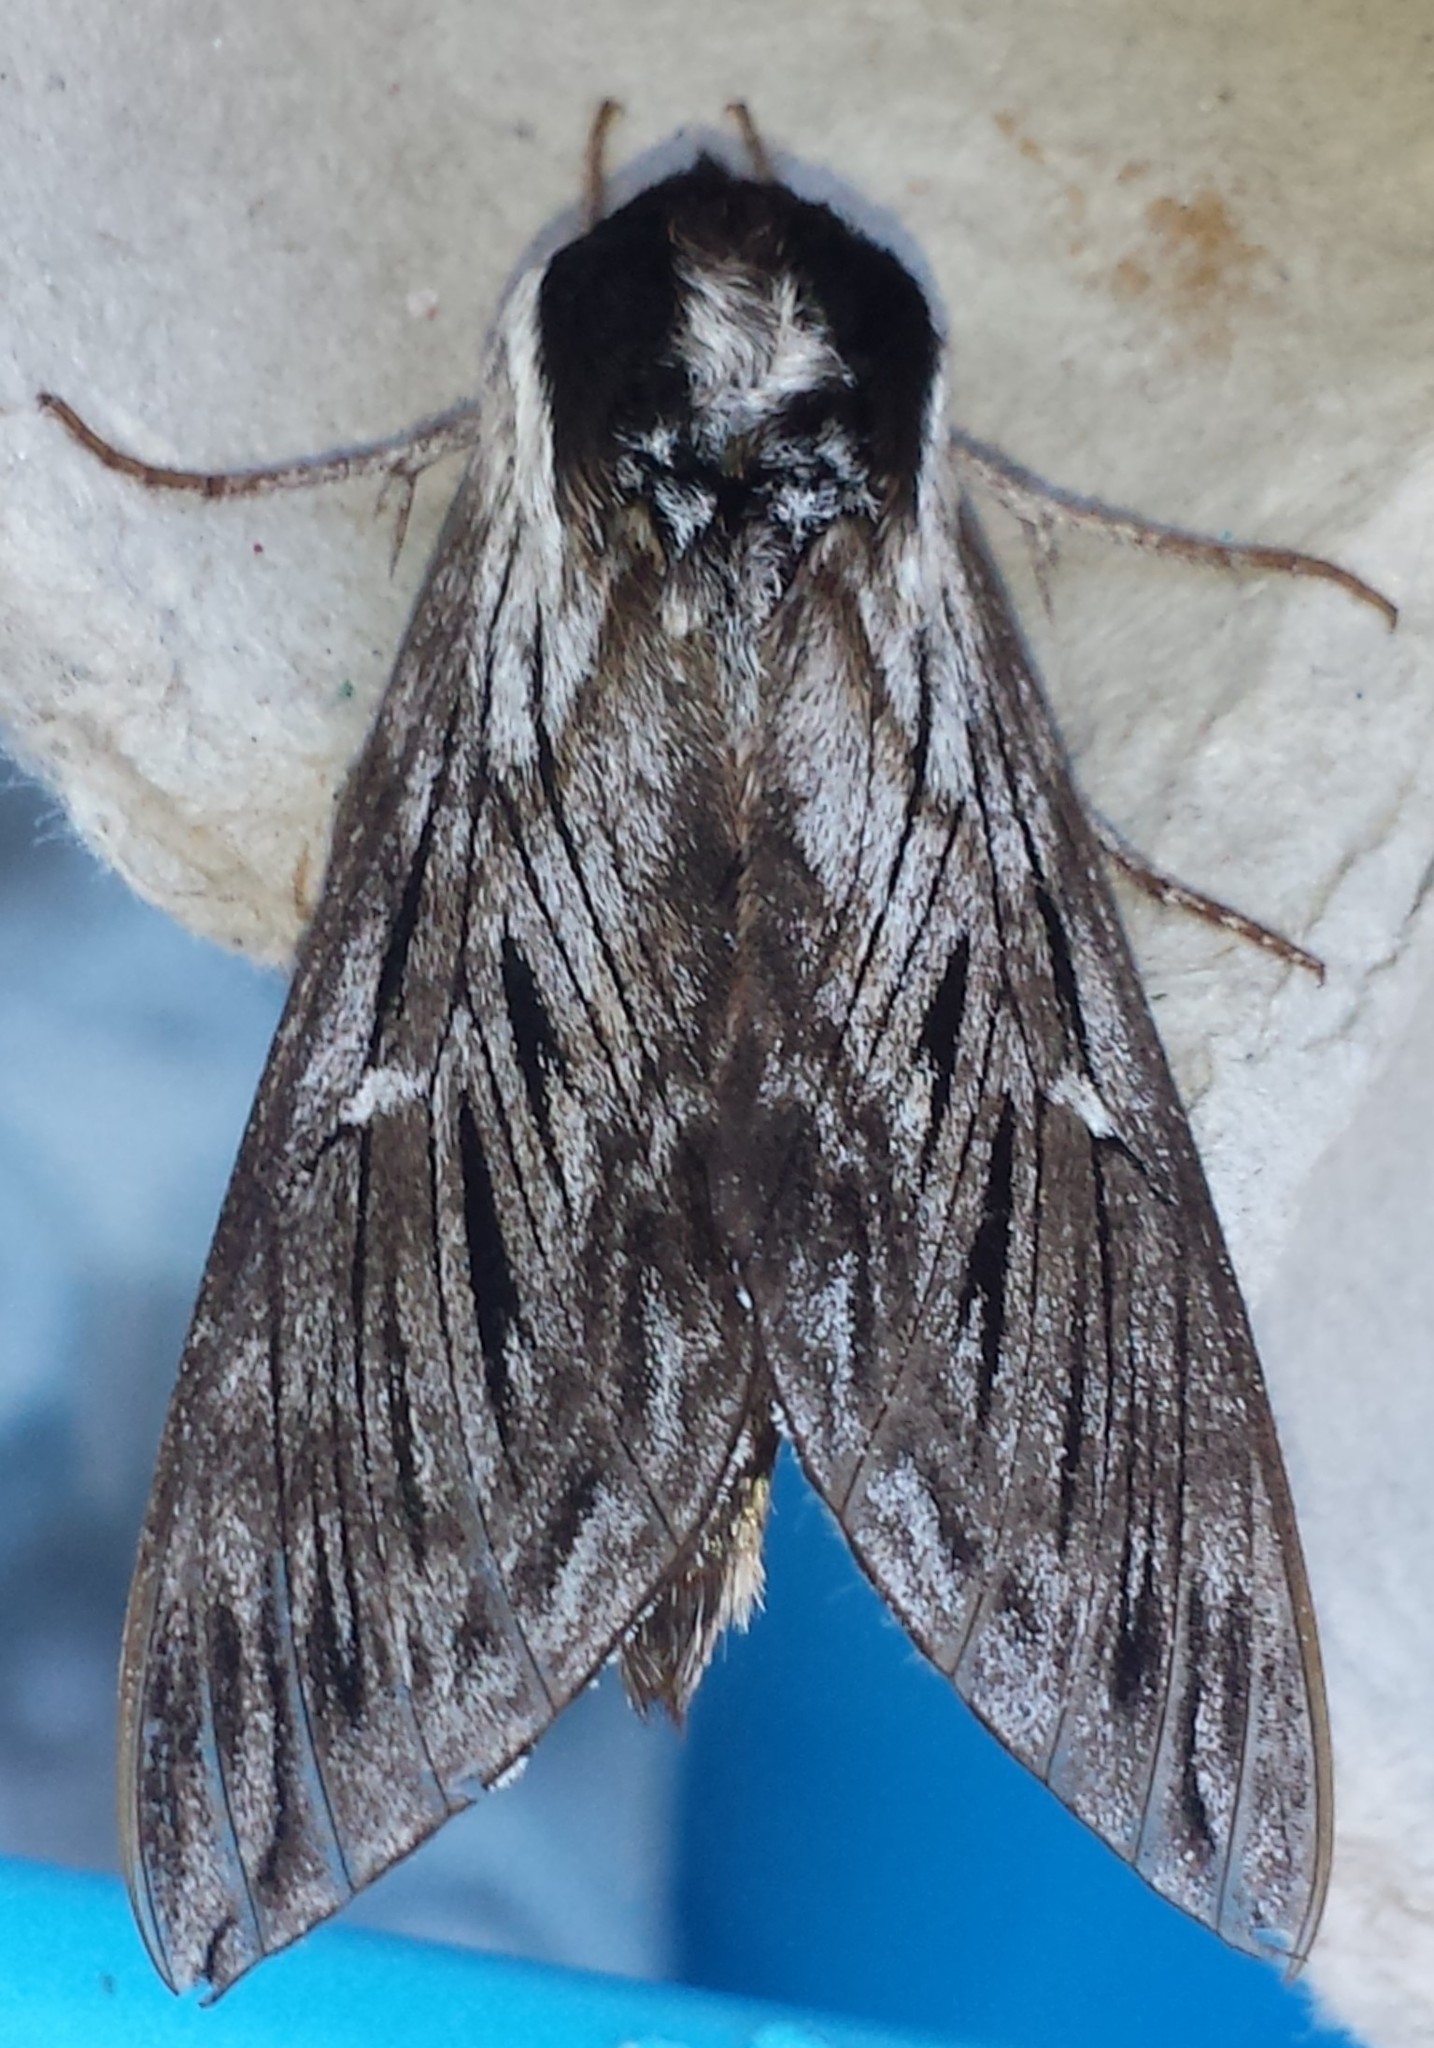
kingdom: Animalia
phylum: Arthropoda
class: Insecta
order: Lepidoptera
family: Sphingidae
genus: Sphinx
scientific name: Sphinx poecila
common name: Northern apple sphinx
